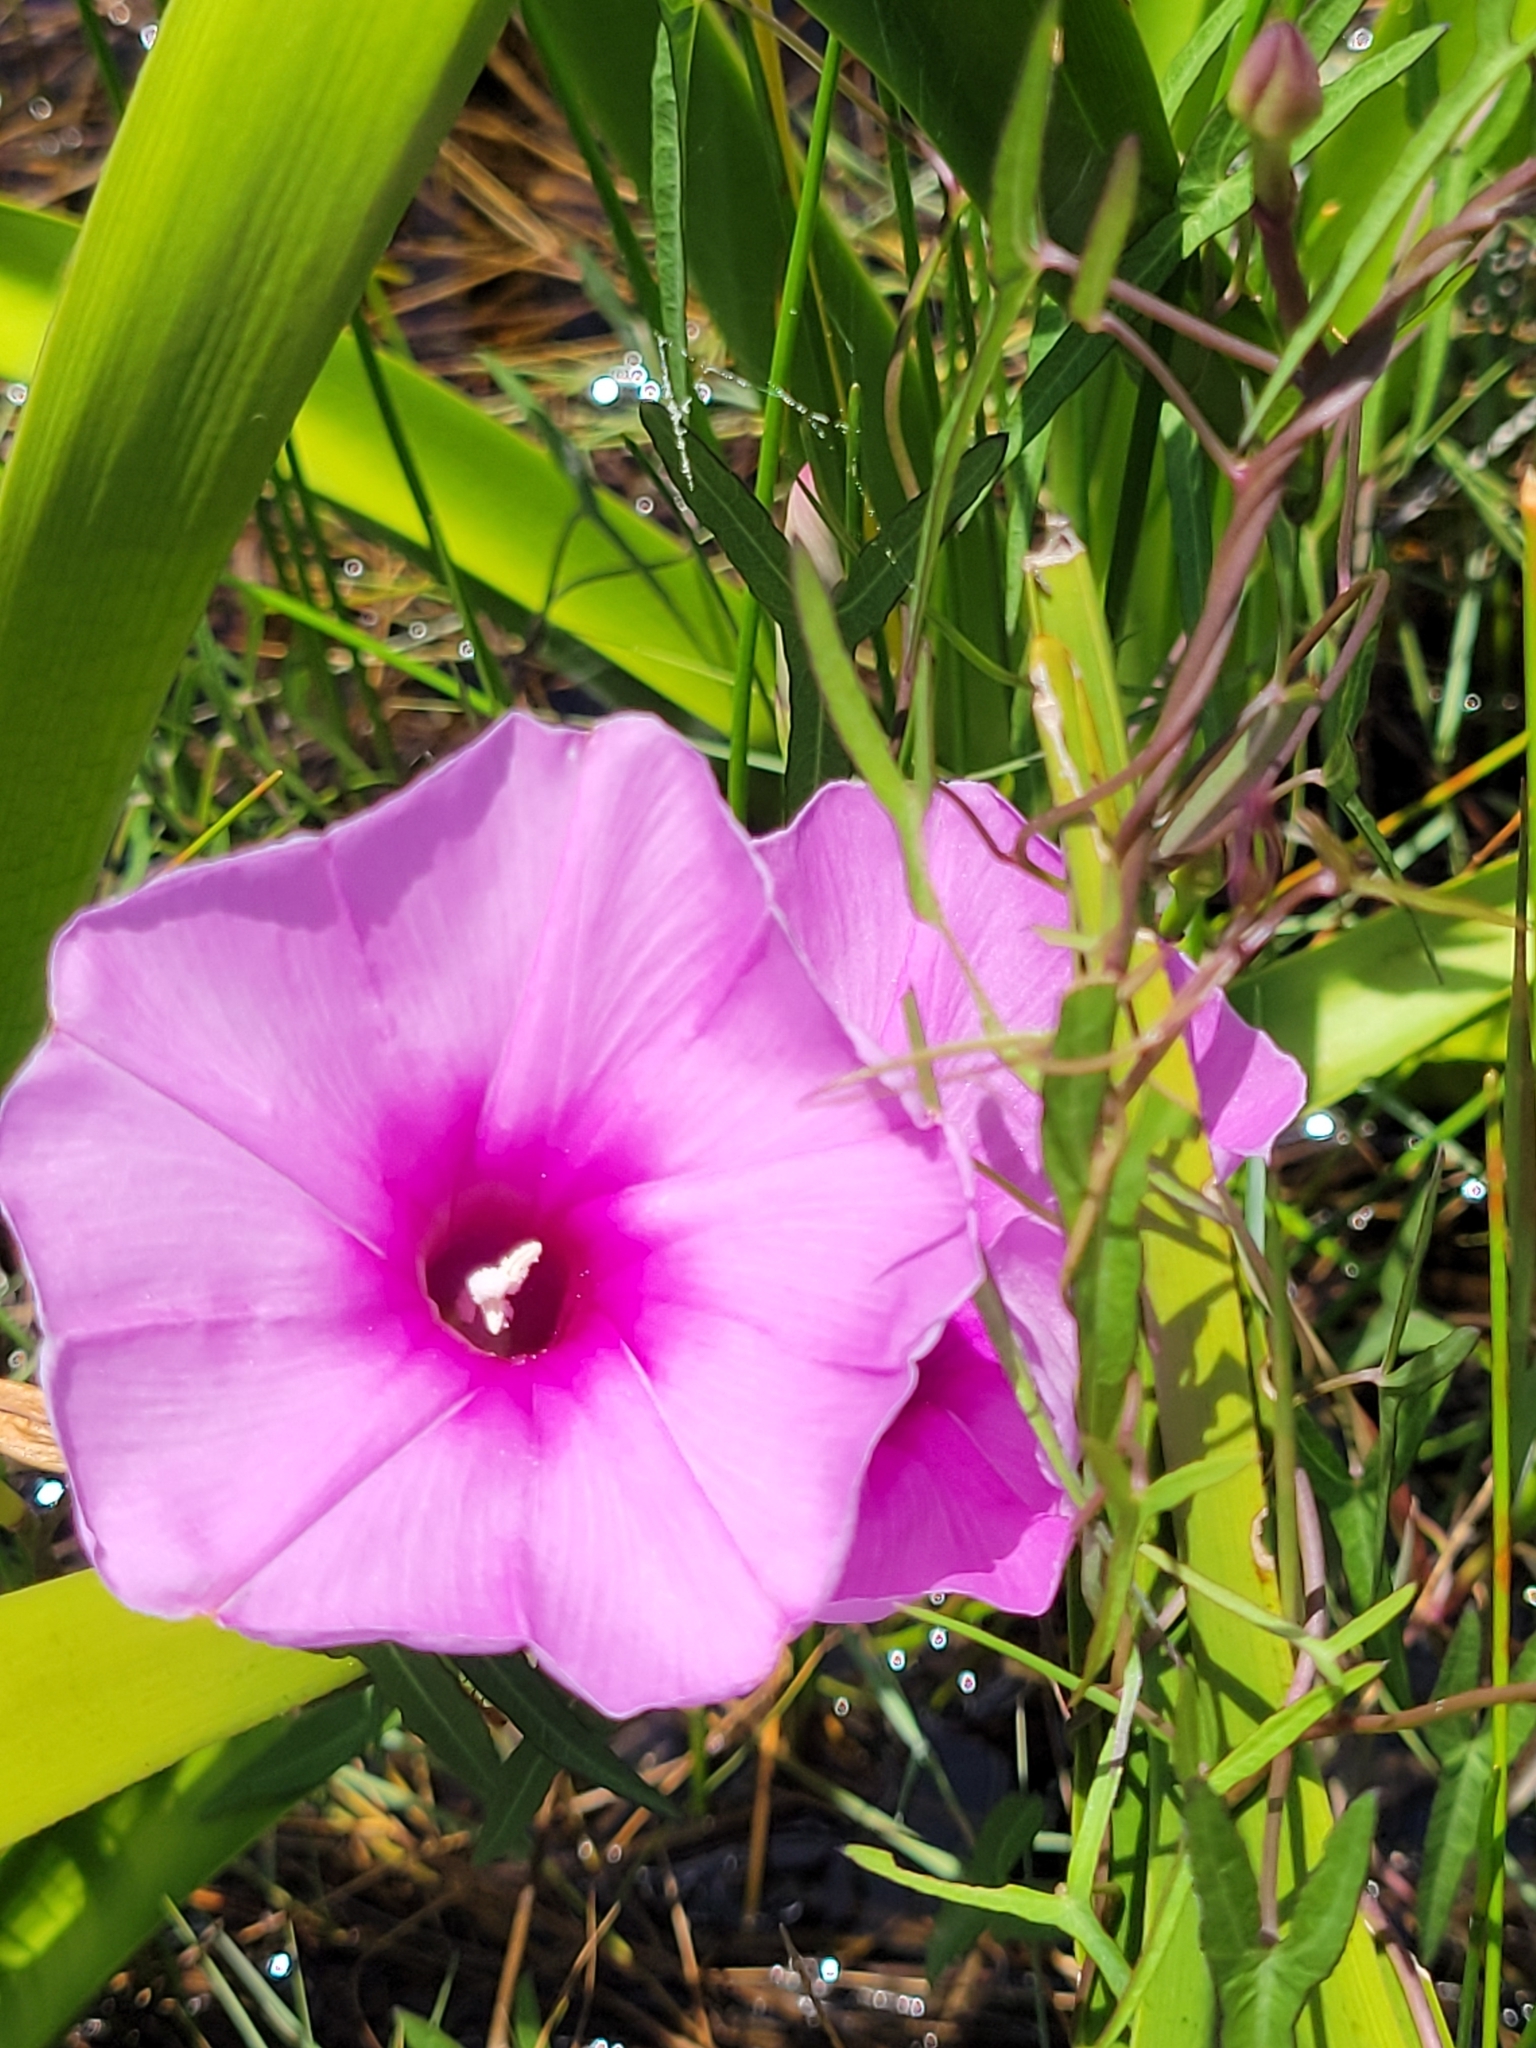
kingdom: Plantae
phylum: Tracheophyta
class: Magnoliopsida
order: Solanales
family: Convolvulaceae
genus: Ipomoea
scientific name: Ipomoea sagittata
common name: Saltmarsh morning glory
